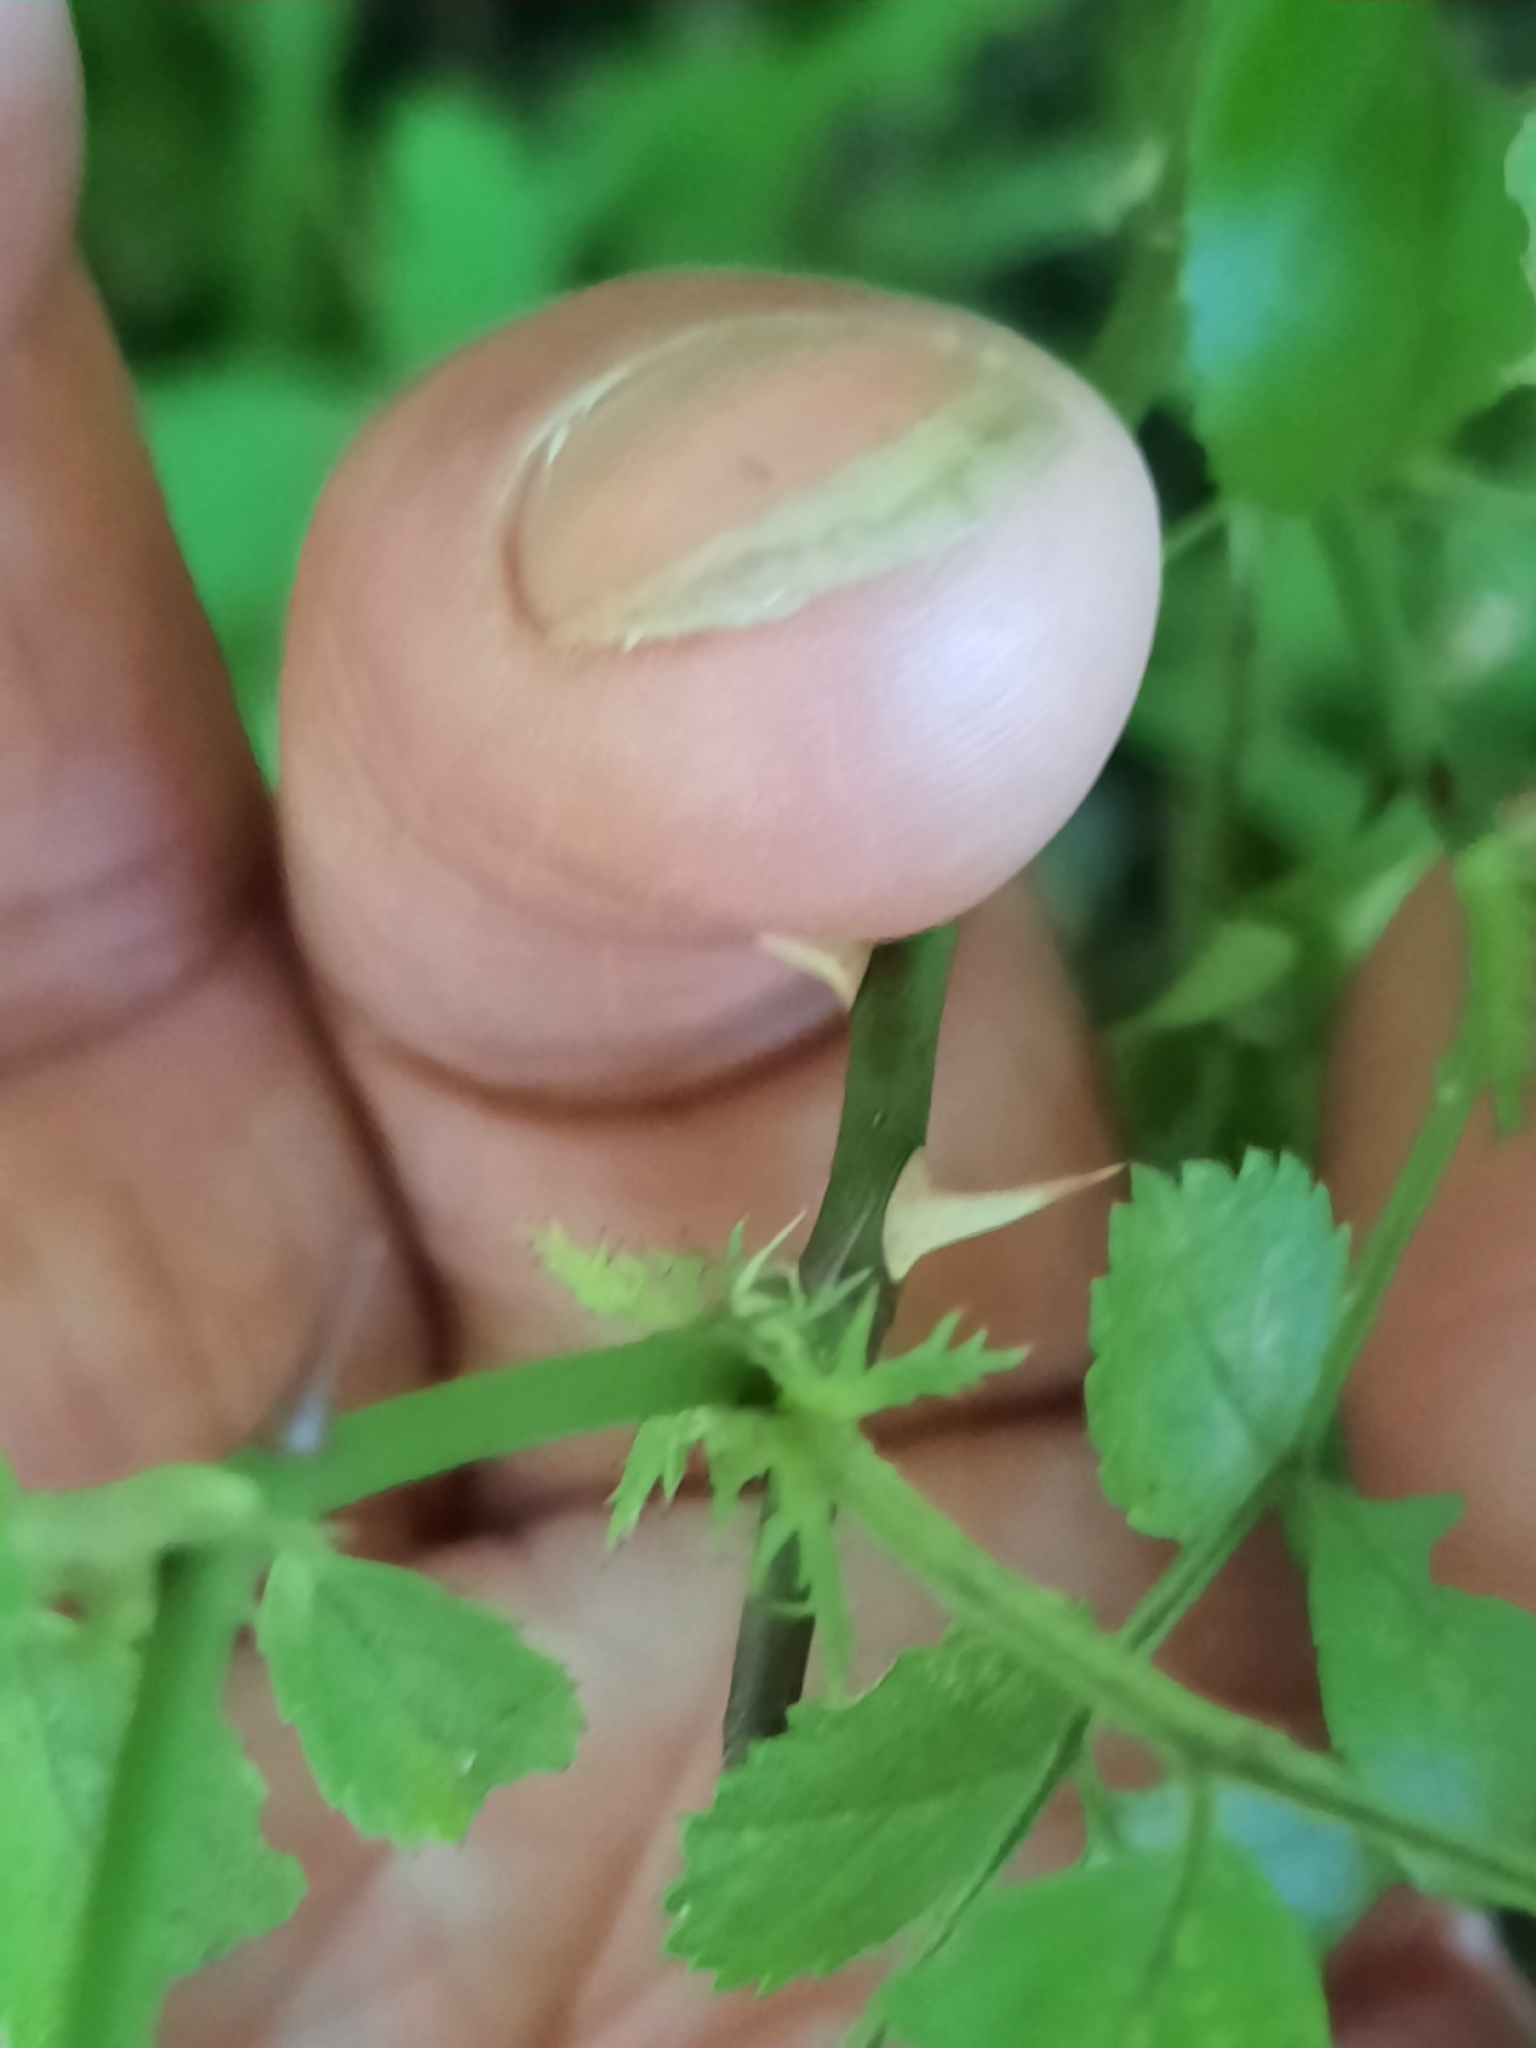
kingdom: Plantae
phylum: Tracheophyta
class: Magnoliopsida
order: Rosales
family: Rosaceae
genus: Rosa
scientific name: Rosa multiflora
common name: Multiflora rose
